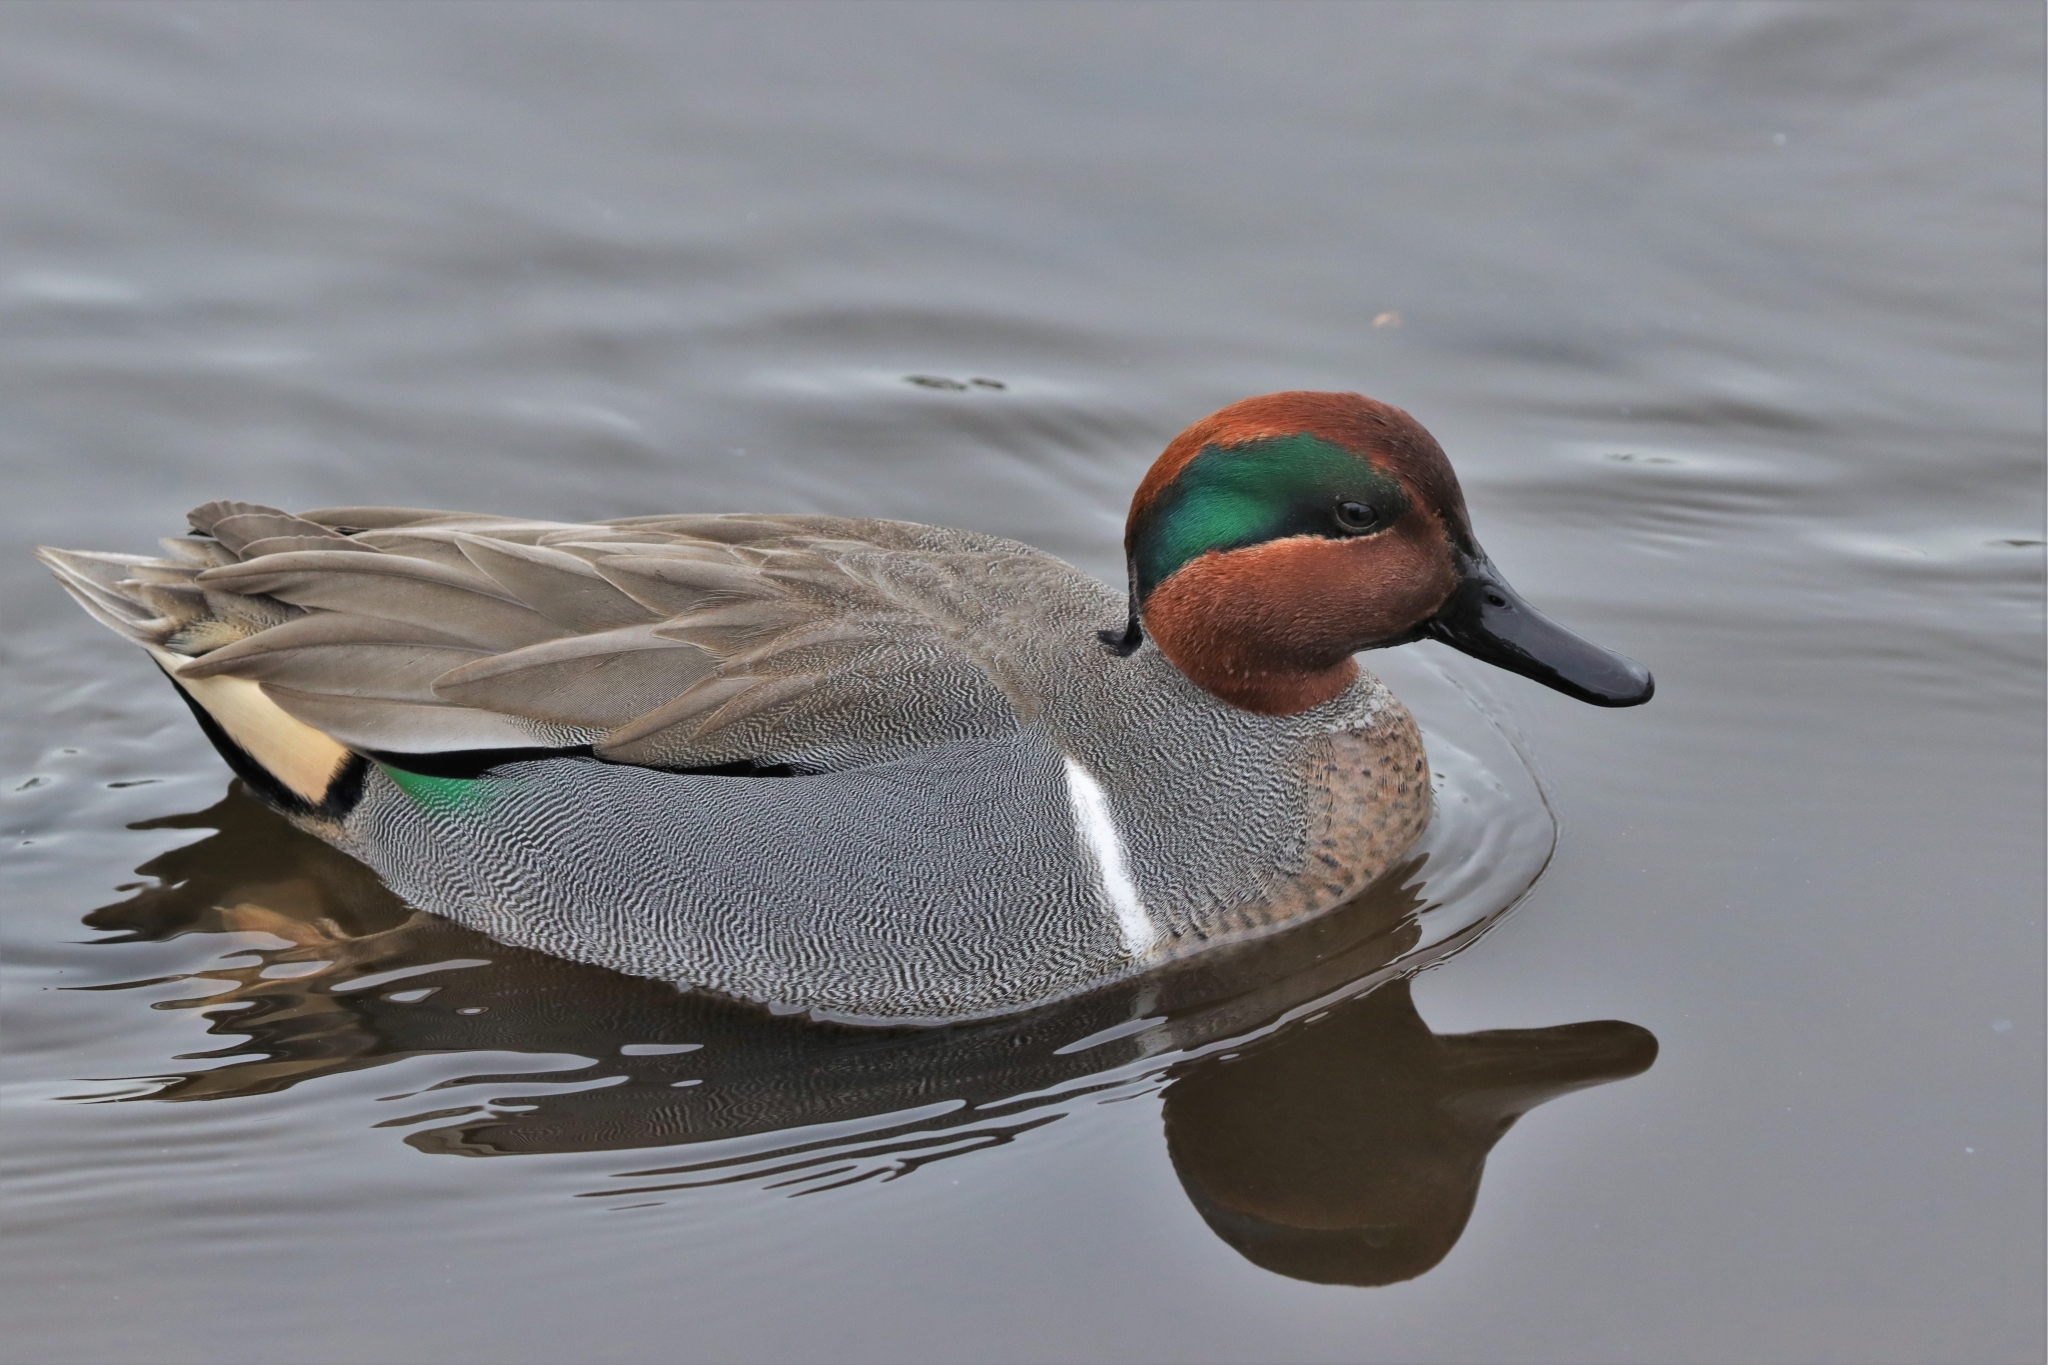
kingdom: Animalia
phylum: Chordata
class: Aves
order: Anseriformes
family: Anatidae
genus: Anas
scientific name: Anas carolinensis
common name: Green-winged teal
